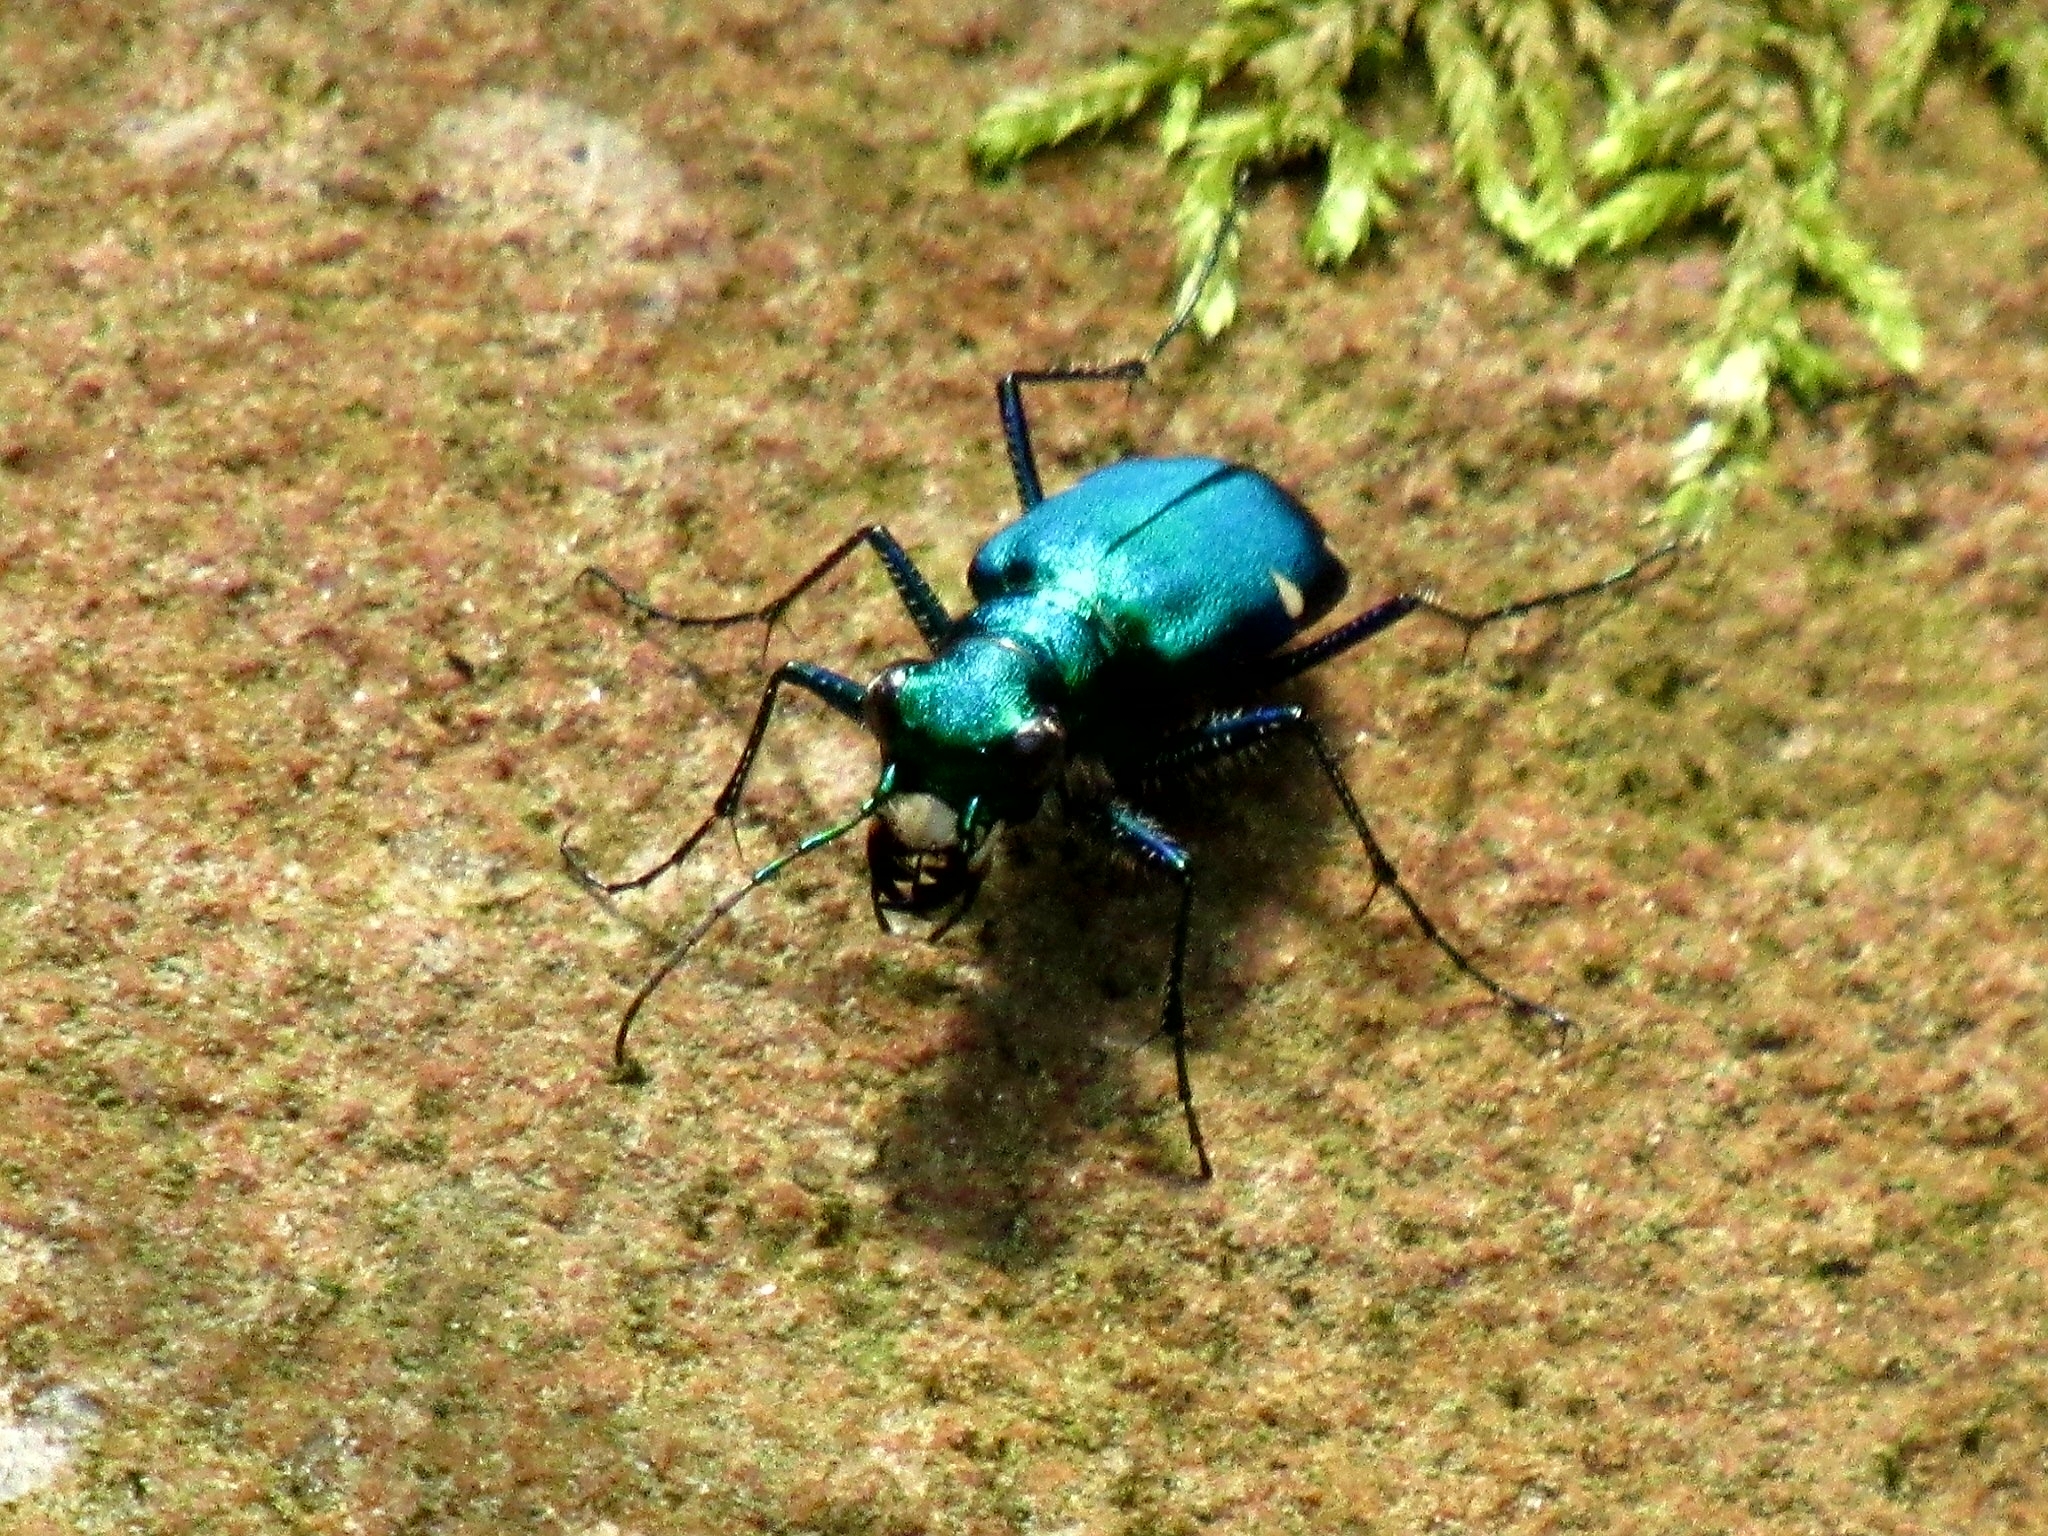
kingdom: Animalia
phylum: Arthropoda
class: Insecta
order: Coleoptera
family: Carabidae
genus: Cicindela
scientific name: Cicindela sexguttata
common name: Six-spotted tiger beetle
